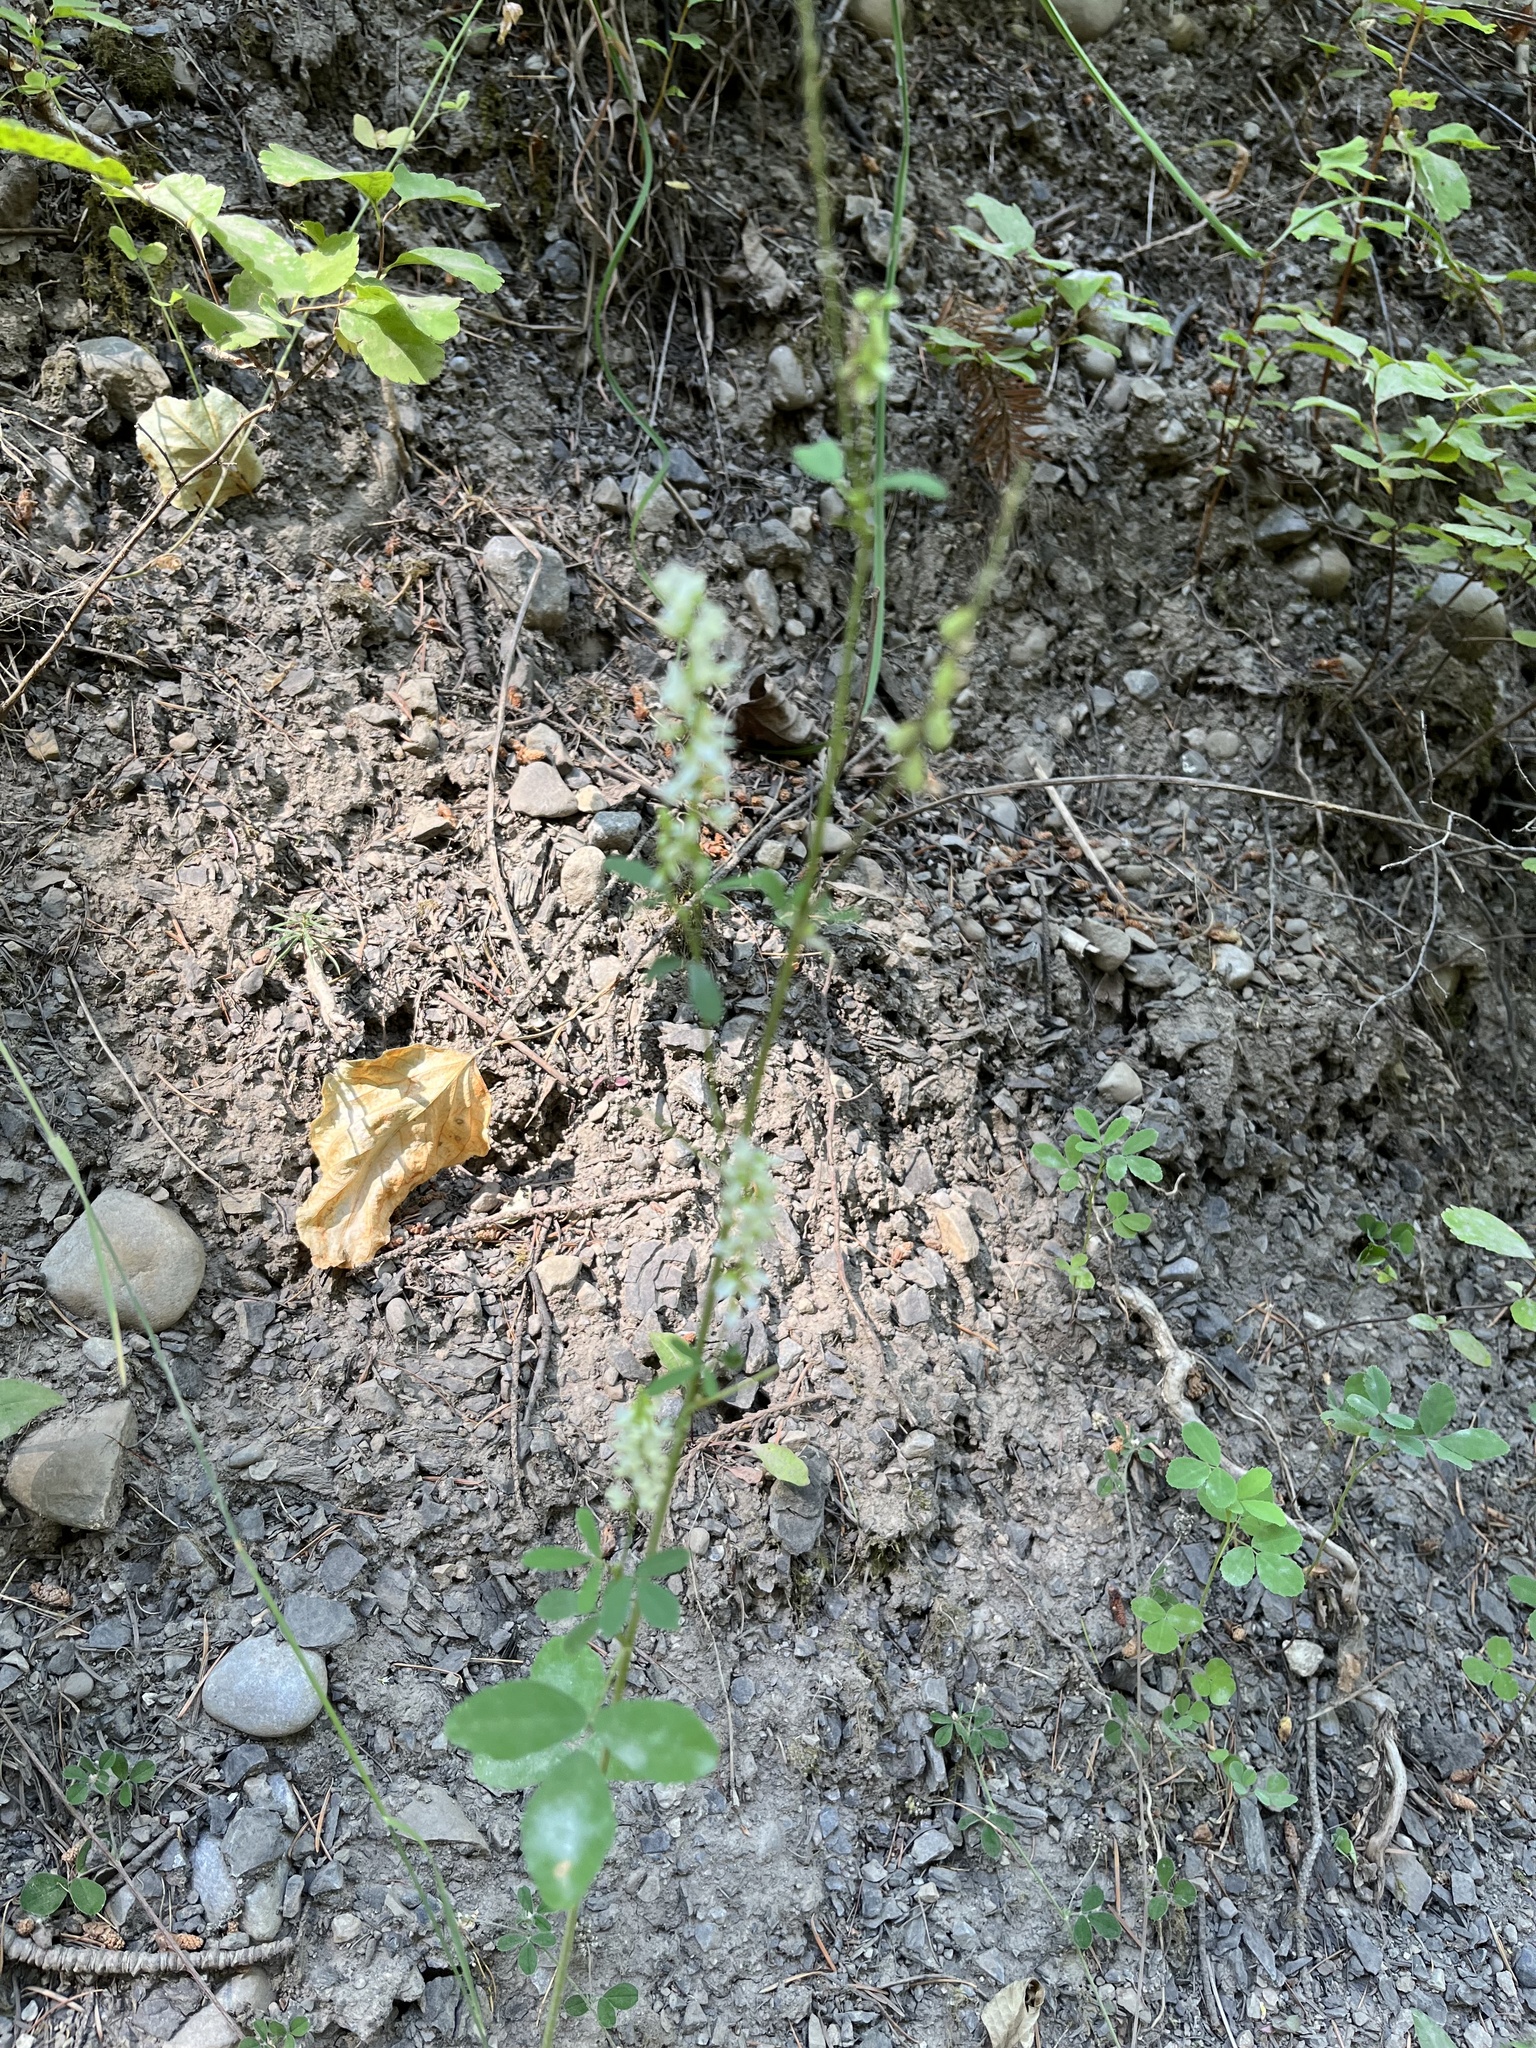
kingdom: Plantae
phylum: Tracheophyta
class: Magnoliopsida
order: Fabales
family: Fabaceae
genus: Melilotus
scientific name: Melilotus albus
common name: White melilot
